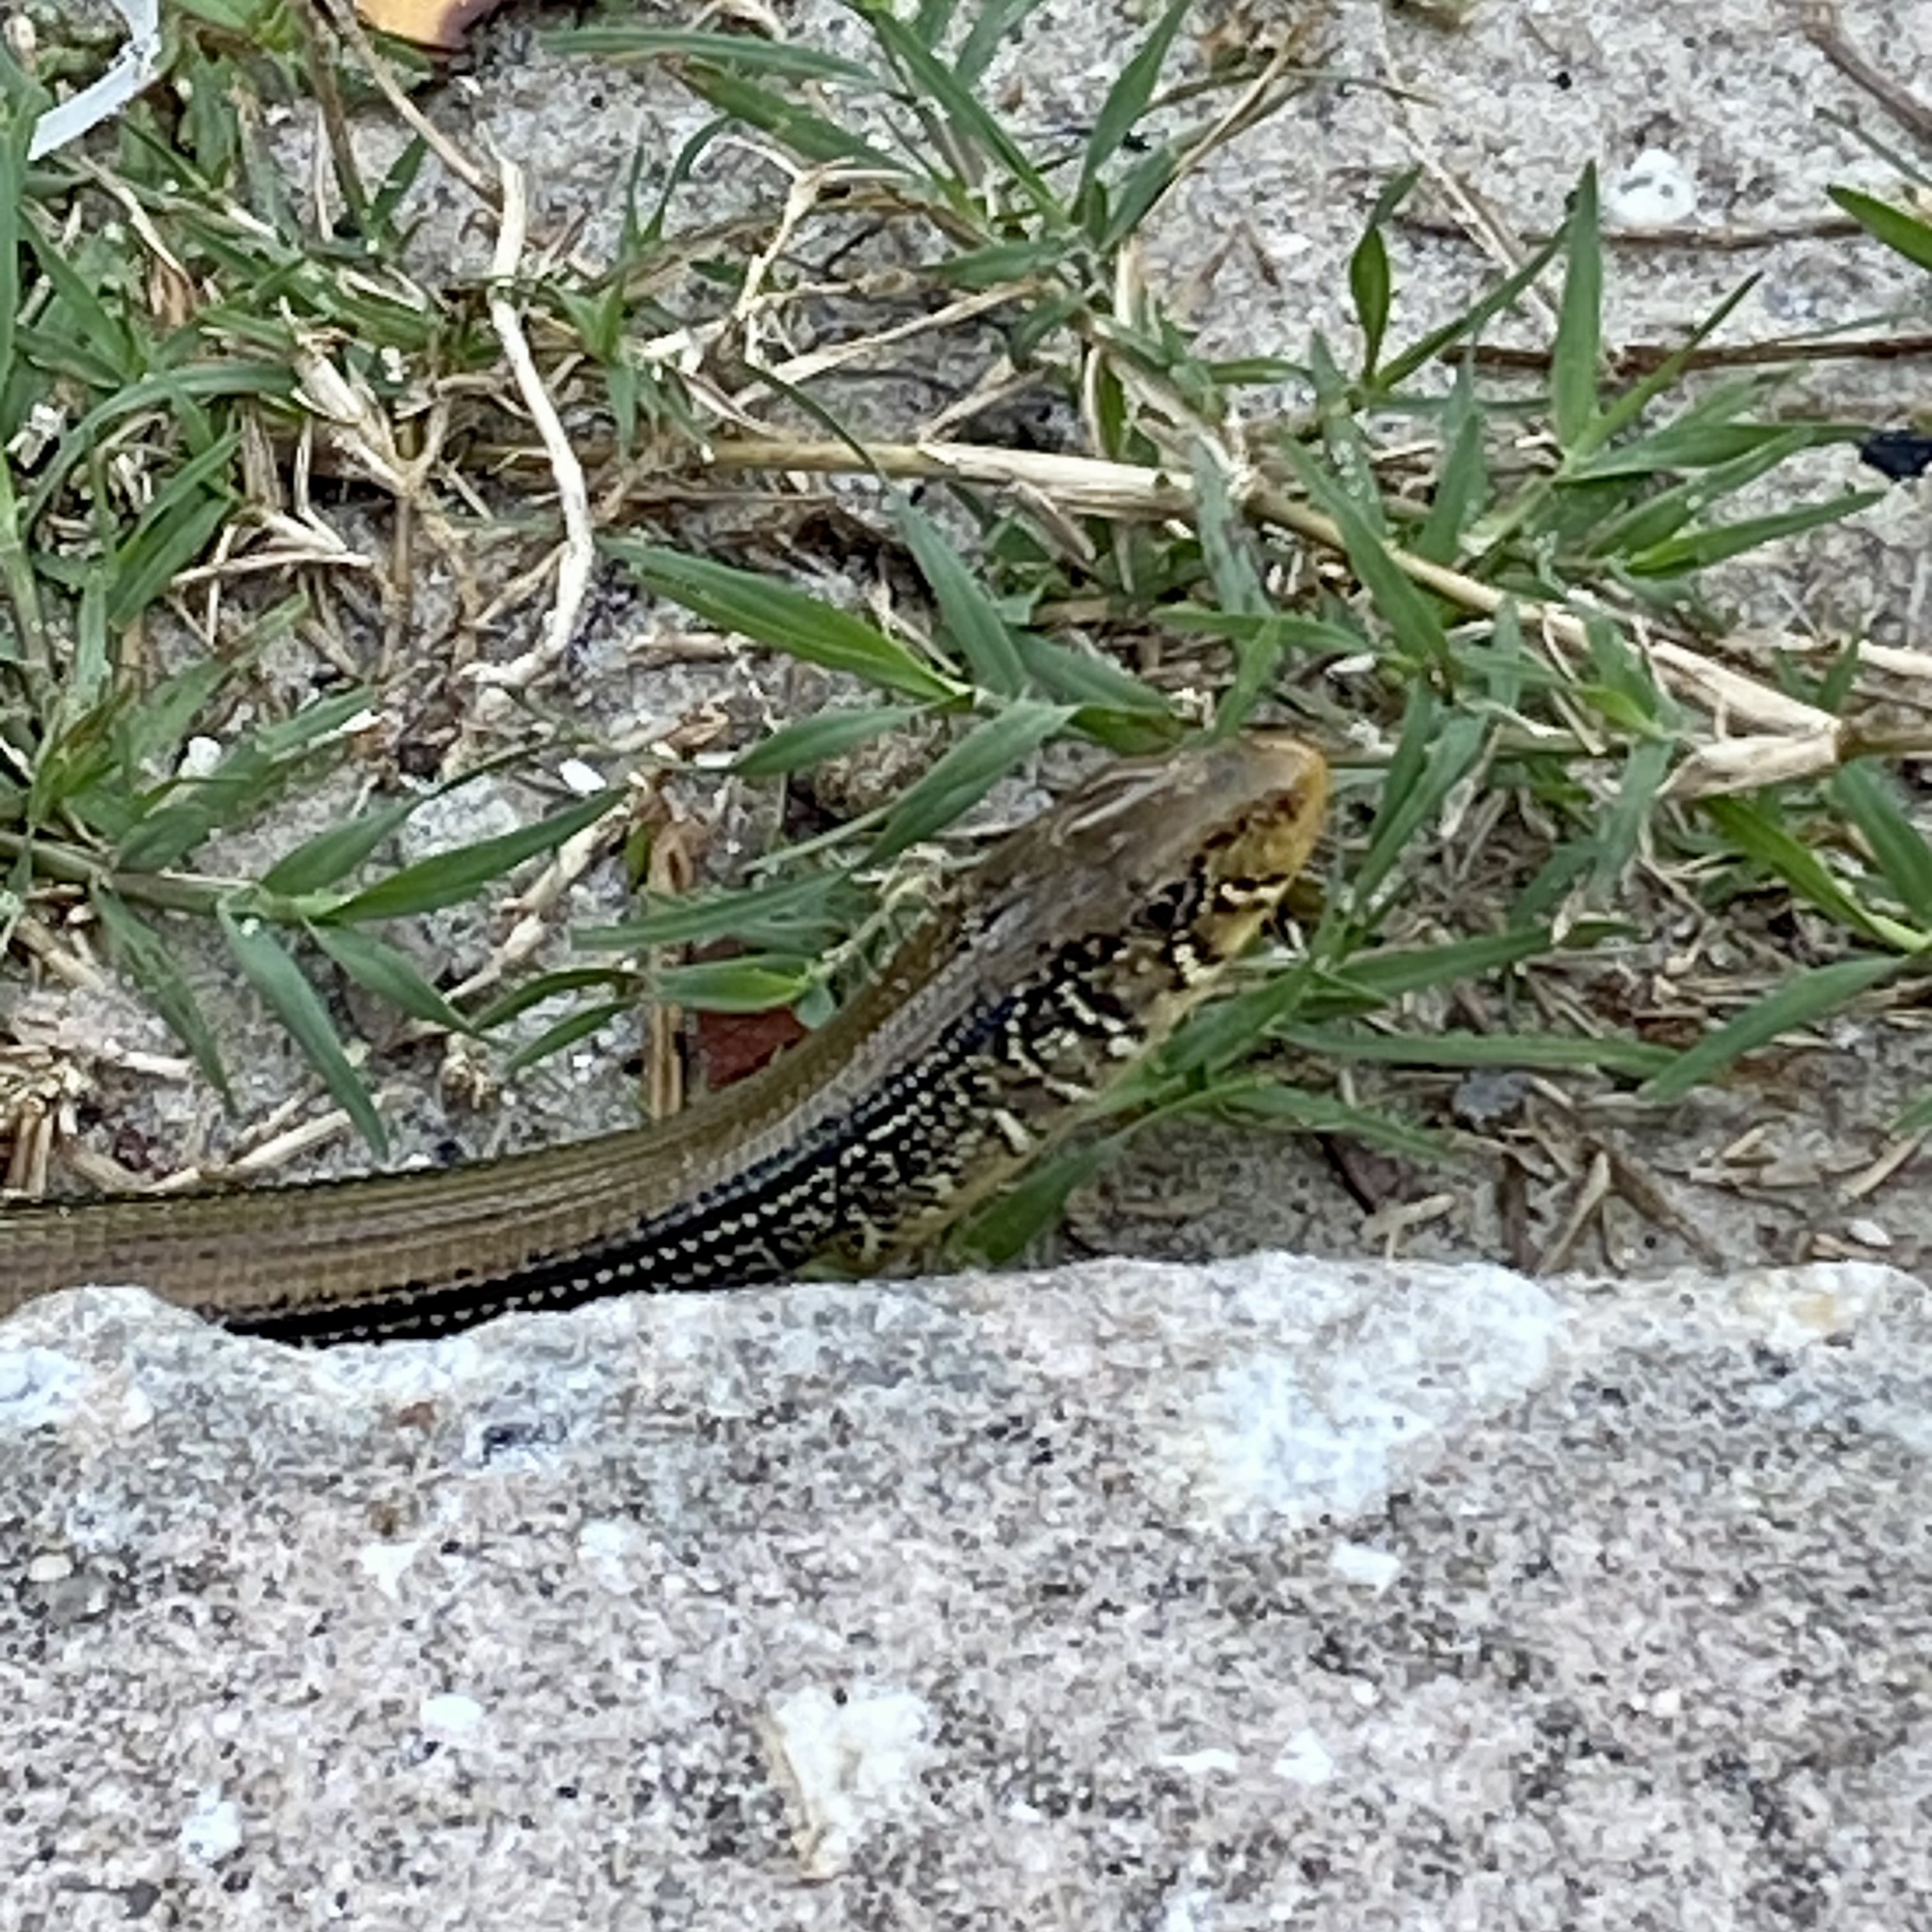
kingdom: Animalia
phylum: Chordata
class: Squamata
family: Anguidae
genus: Ophisaurus
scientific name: Ophisaurus ventralis
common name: Eastern glass lizard
